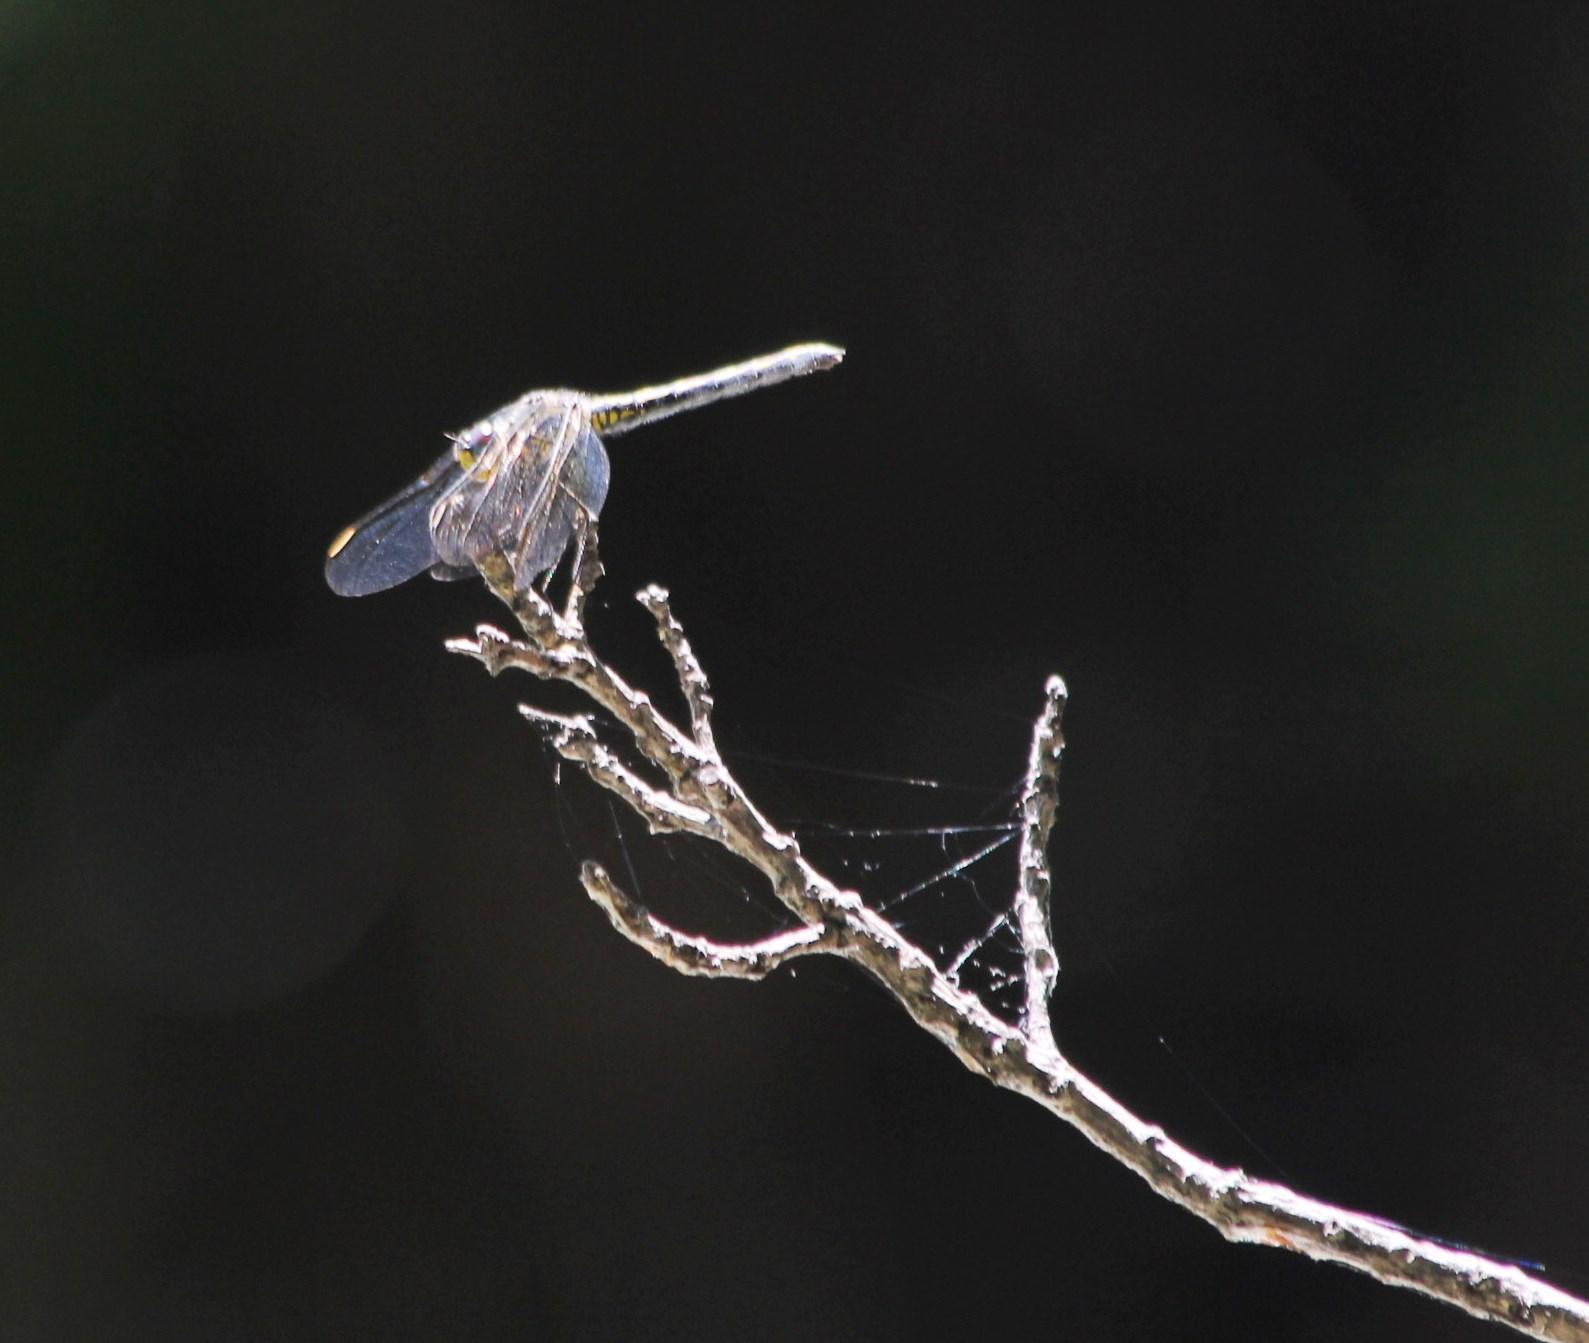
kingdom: Animalia
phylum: Arthropoda
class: Insecta
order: Odonata
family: Libellulidae
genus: Trithemis
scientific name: Trithemis stictica
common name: Jaunty dropwing
